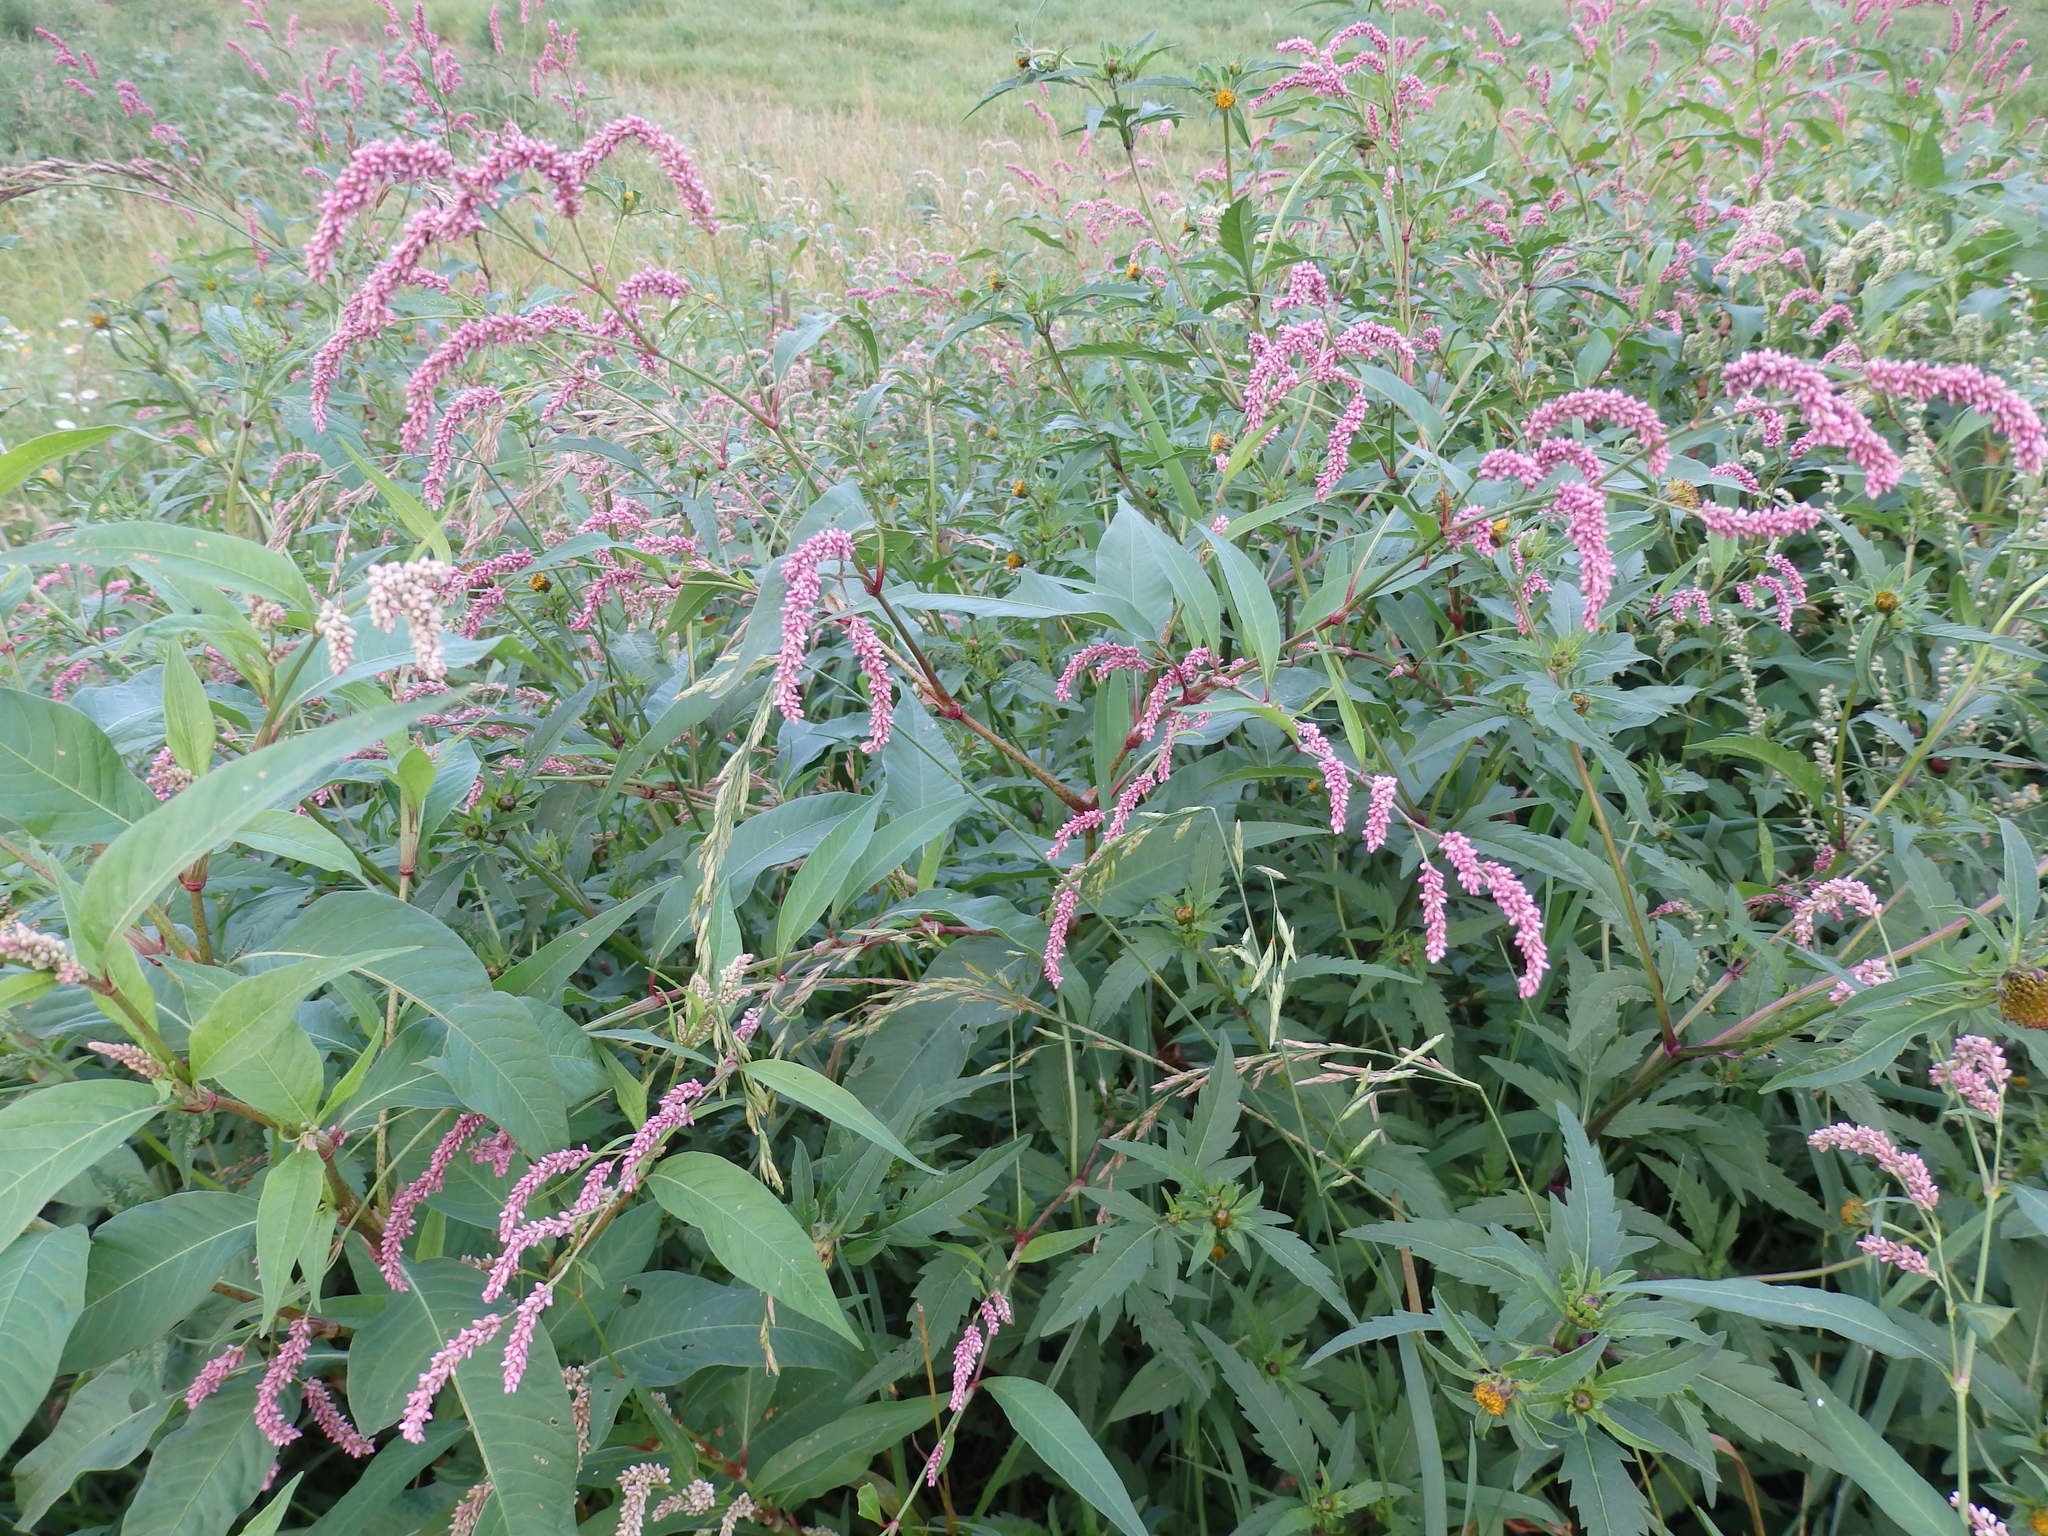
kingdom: Plantae
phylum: Tracheophyta
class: Magnoliopsida
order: Caryophyllales
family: Polygonaceae
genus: Persicaria
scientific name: Persicaria lapathifolia
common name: Curlytop knotweed
